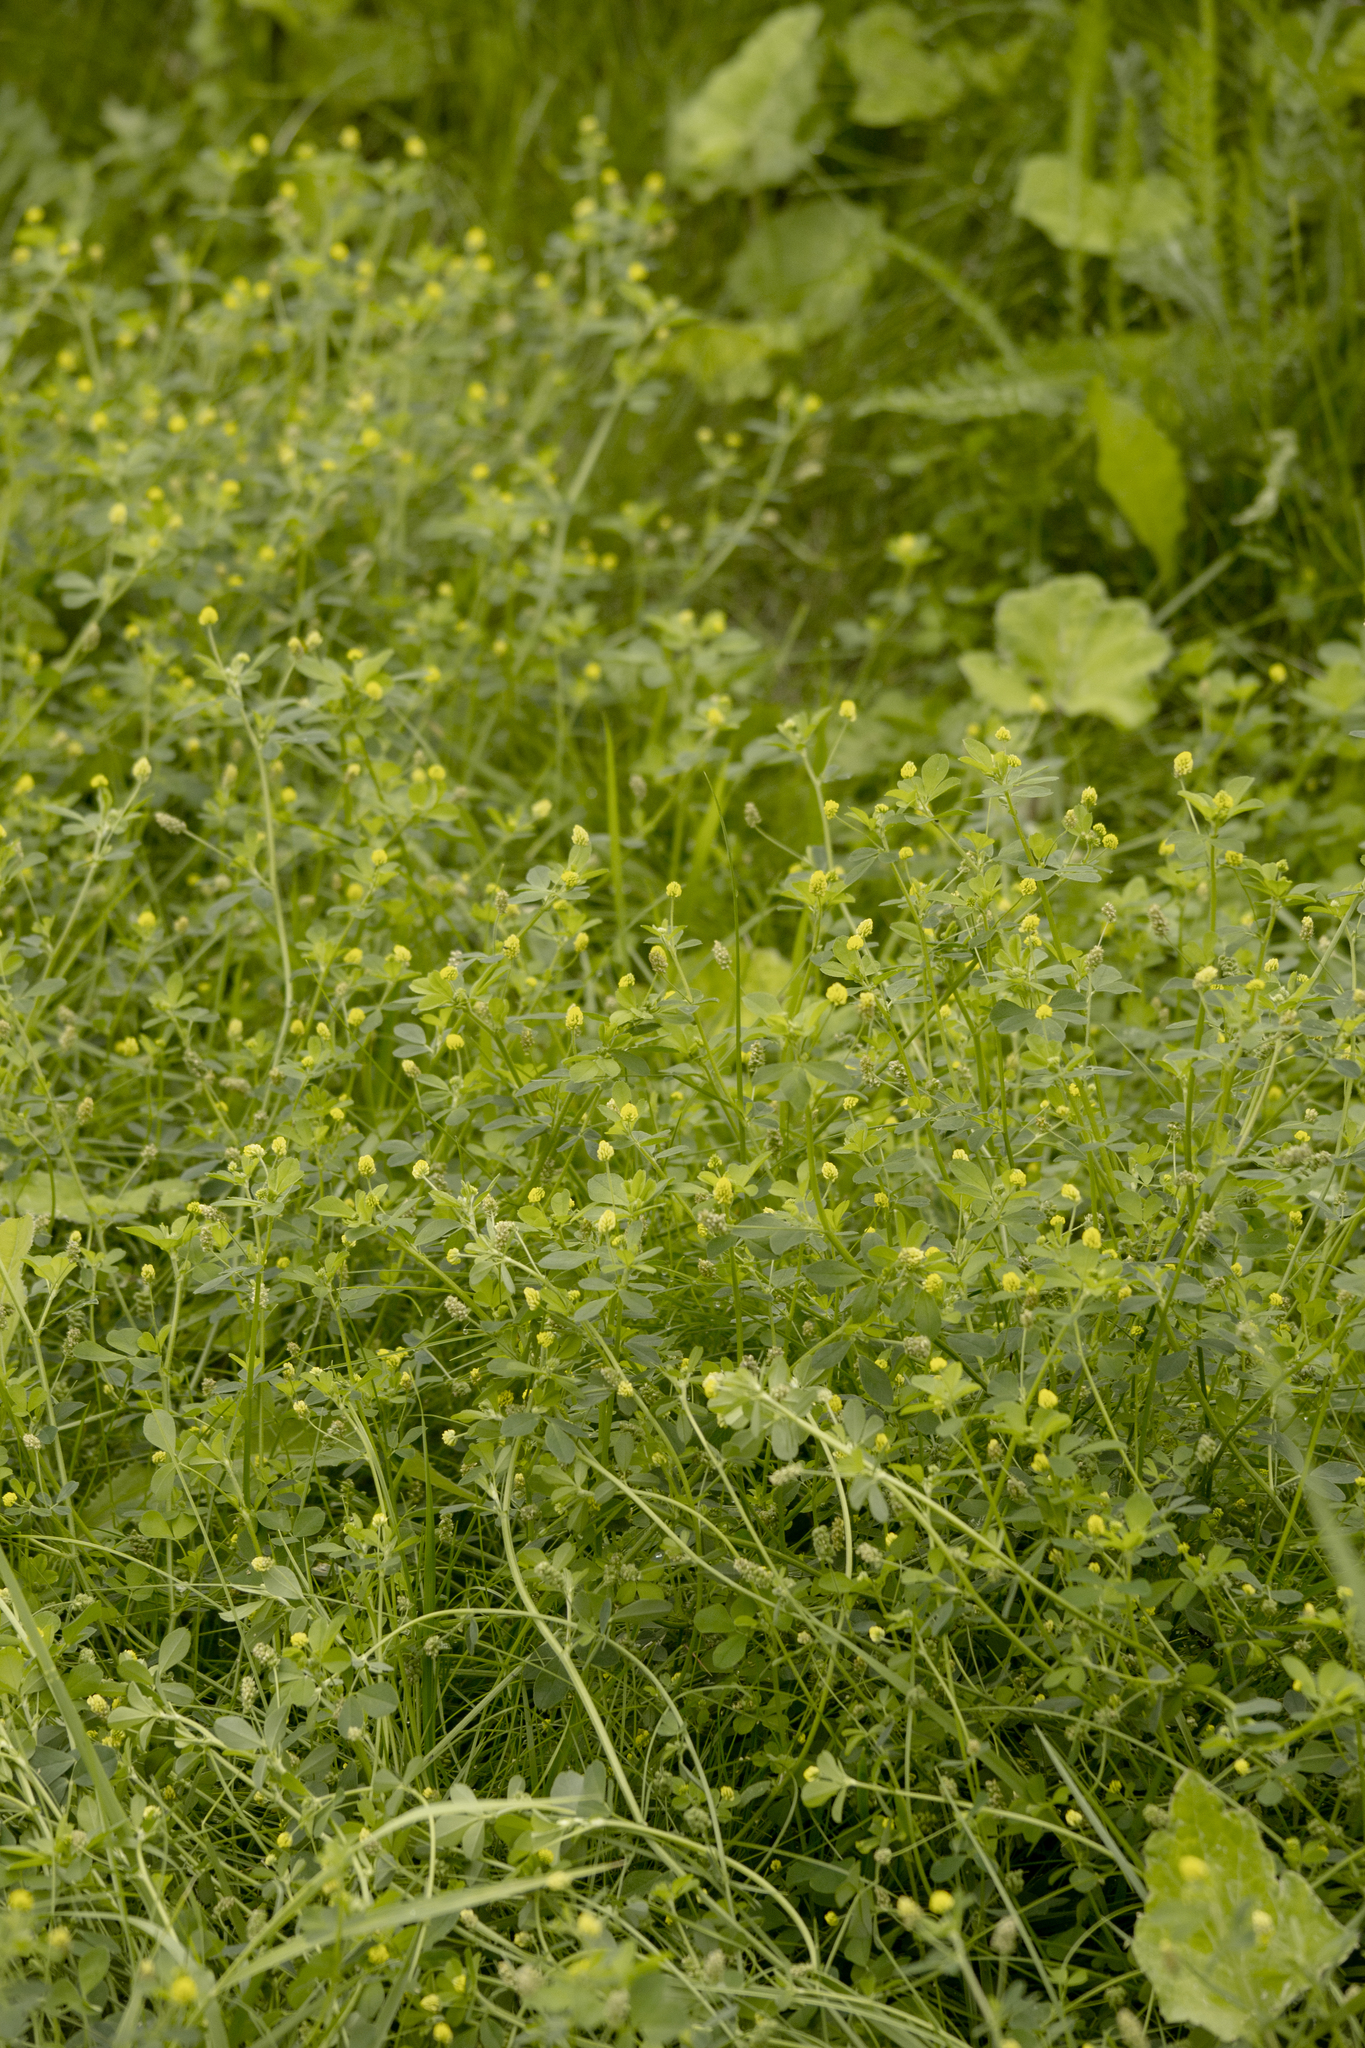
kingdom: Plantae
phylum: Tracheophyta
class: Magnoliopsida
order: Fabales
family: Fabaceae
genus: Medicago
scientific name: Medicago lupulina
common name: Black medick
